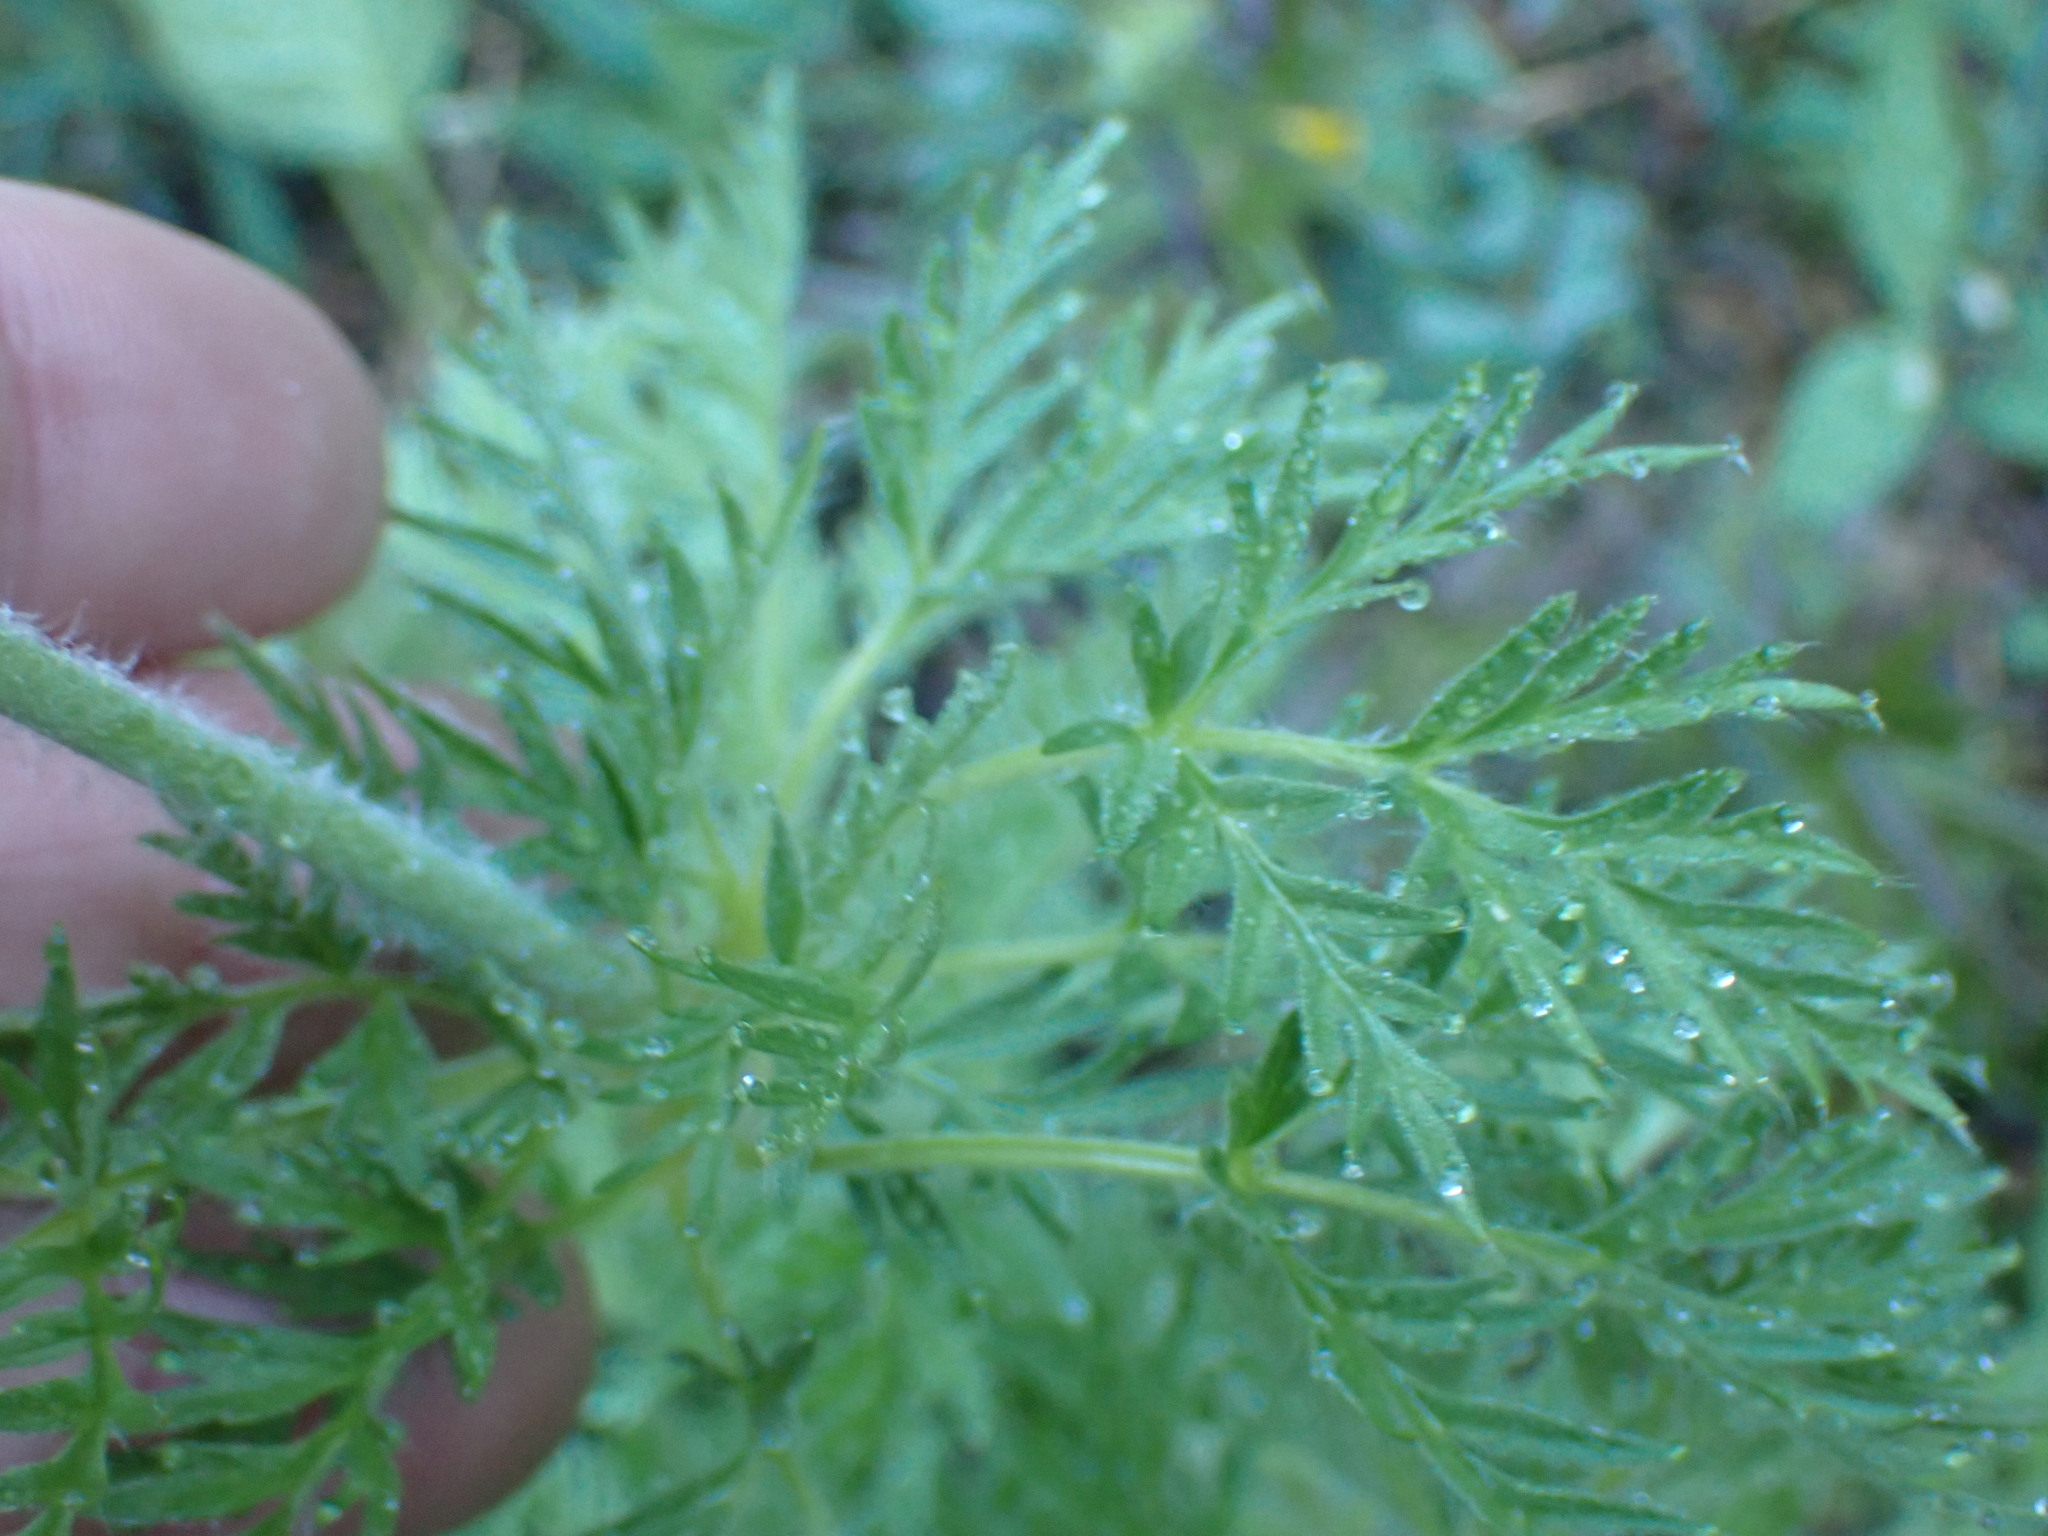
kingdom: Plantae
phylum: Tracheophyta
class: Magnoliopsida
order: Ranunculales
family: Ranunculaceae
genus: Pulsatilla
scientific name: Pulsatilla occidentalis
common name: Mountain pasqueflower
